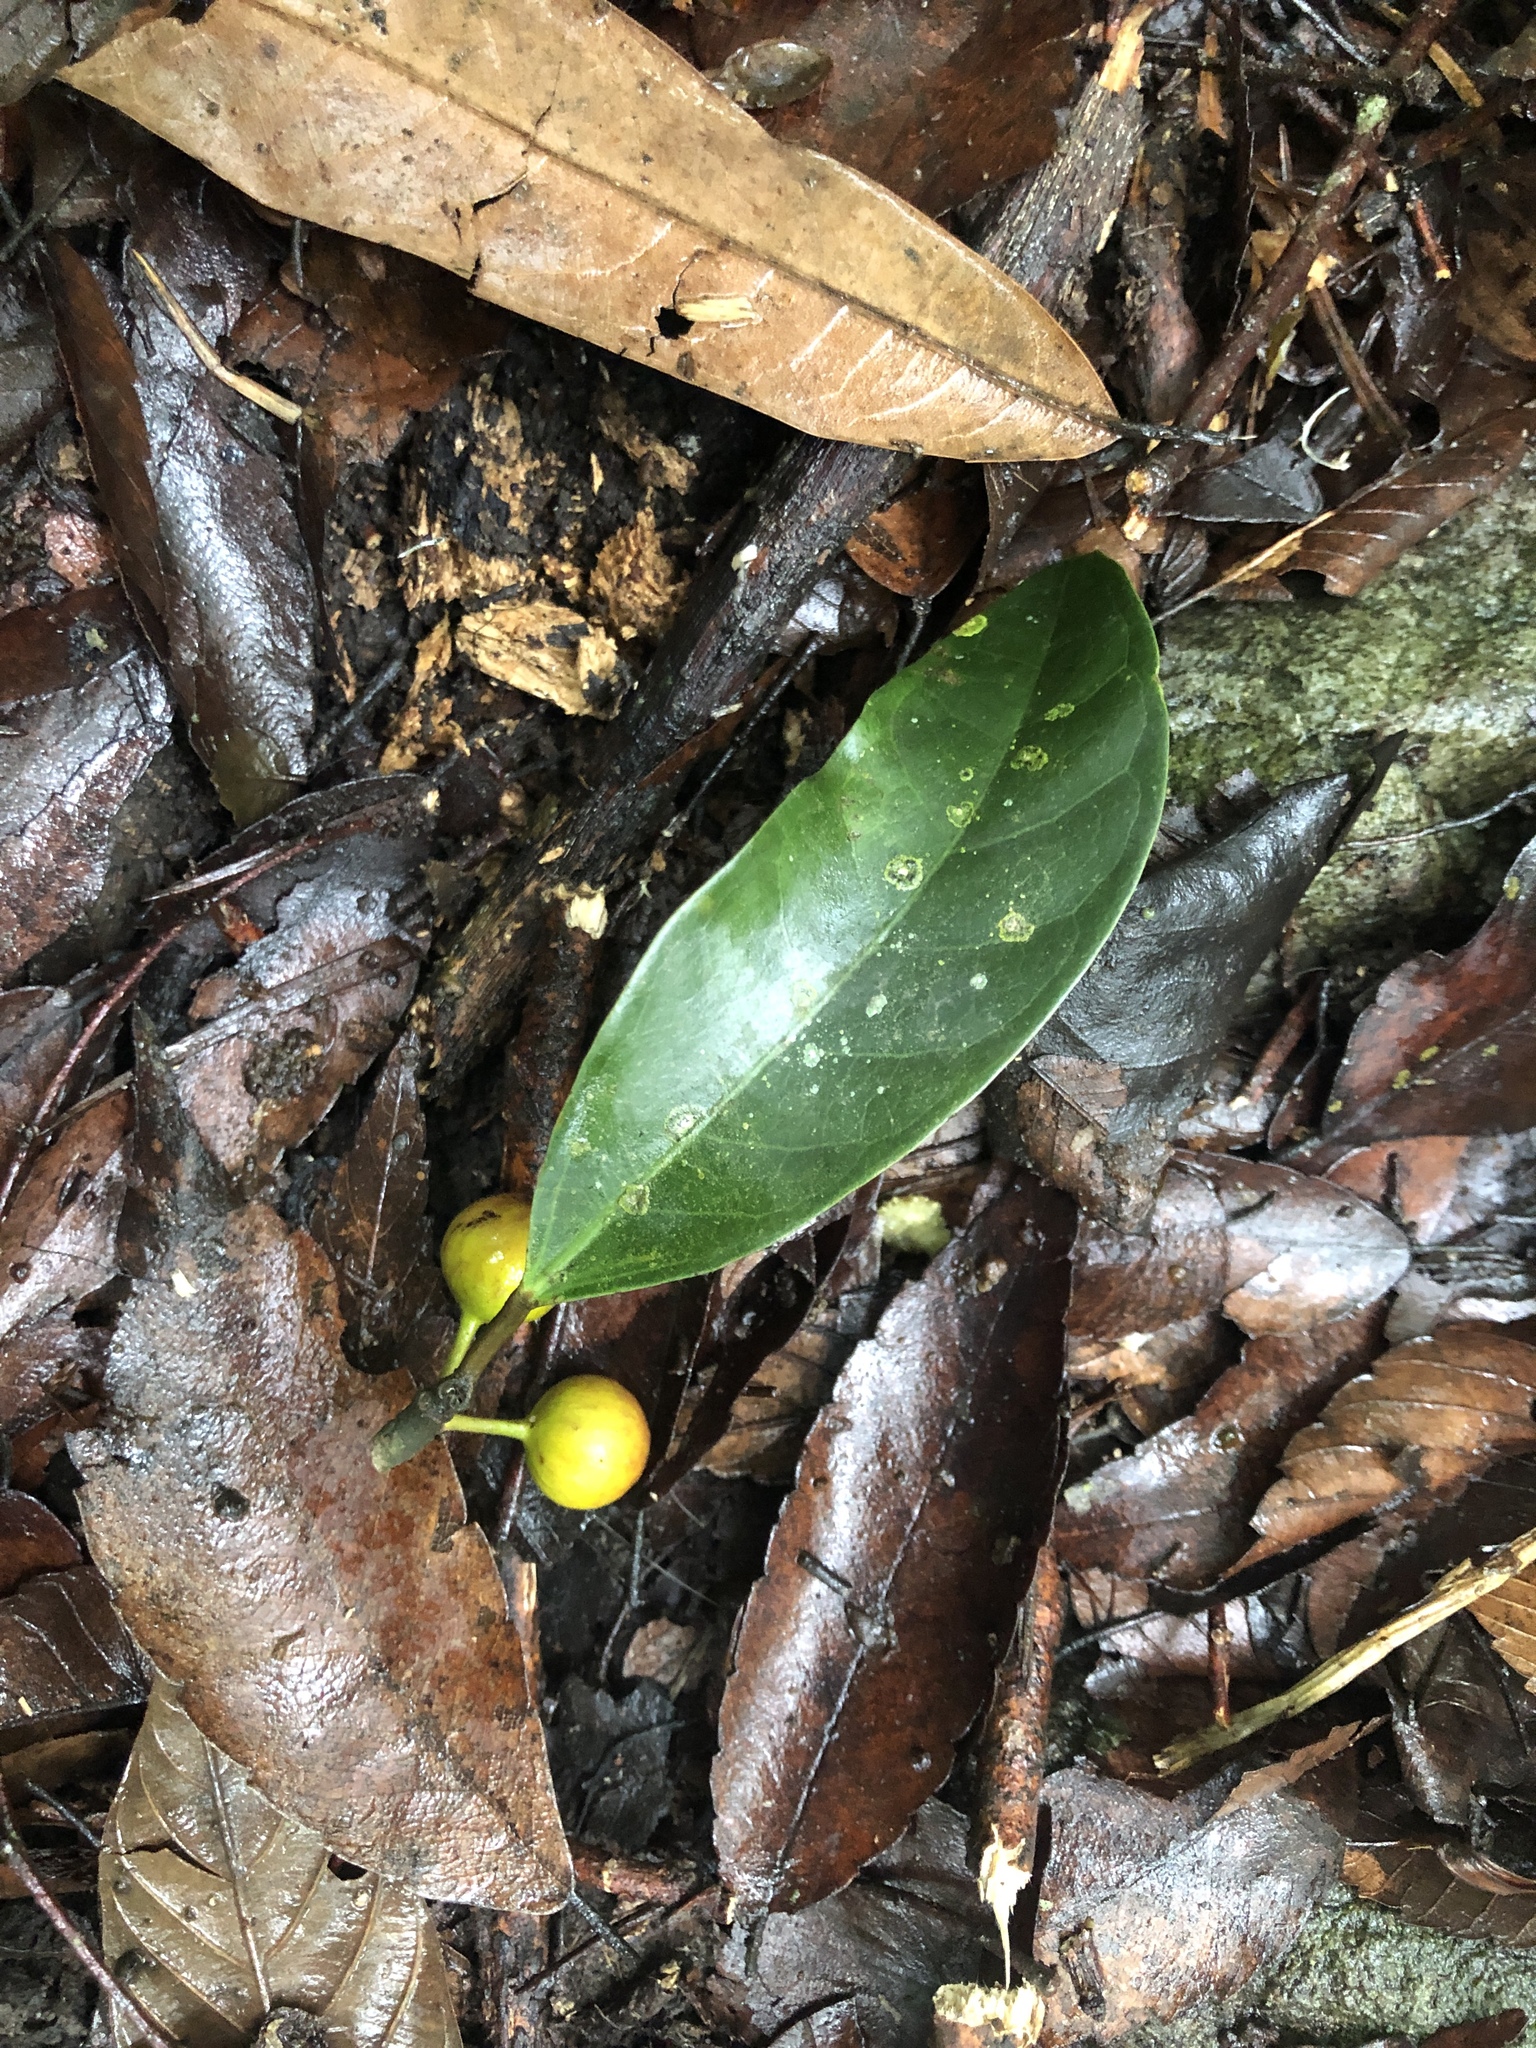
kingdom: Plantae
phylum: Tracheophyta
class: Magnoliopsida
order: Rosales
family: Moraceae
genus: Ficus
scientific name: Ficus nervosa
